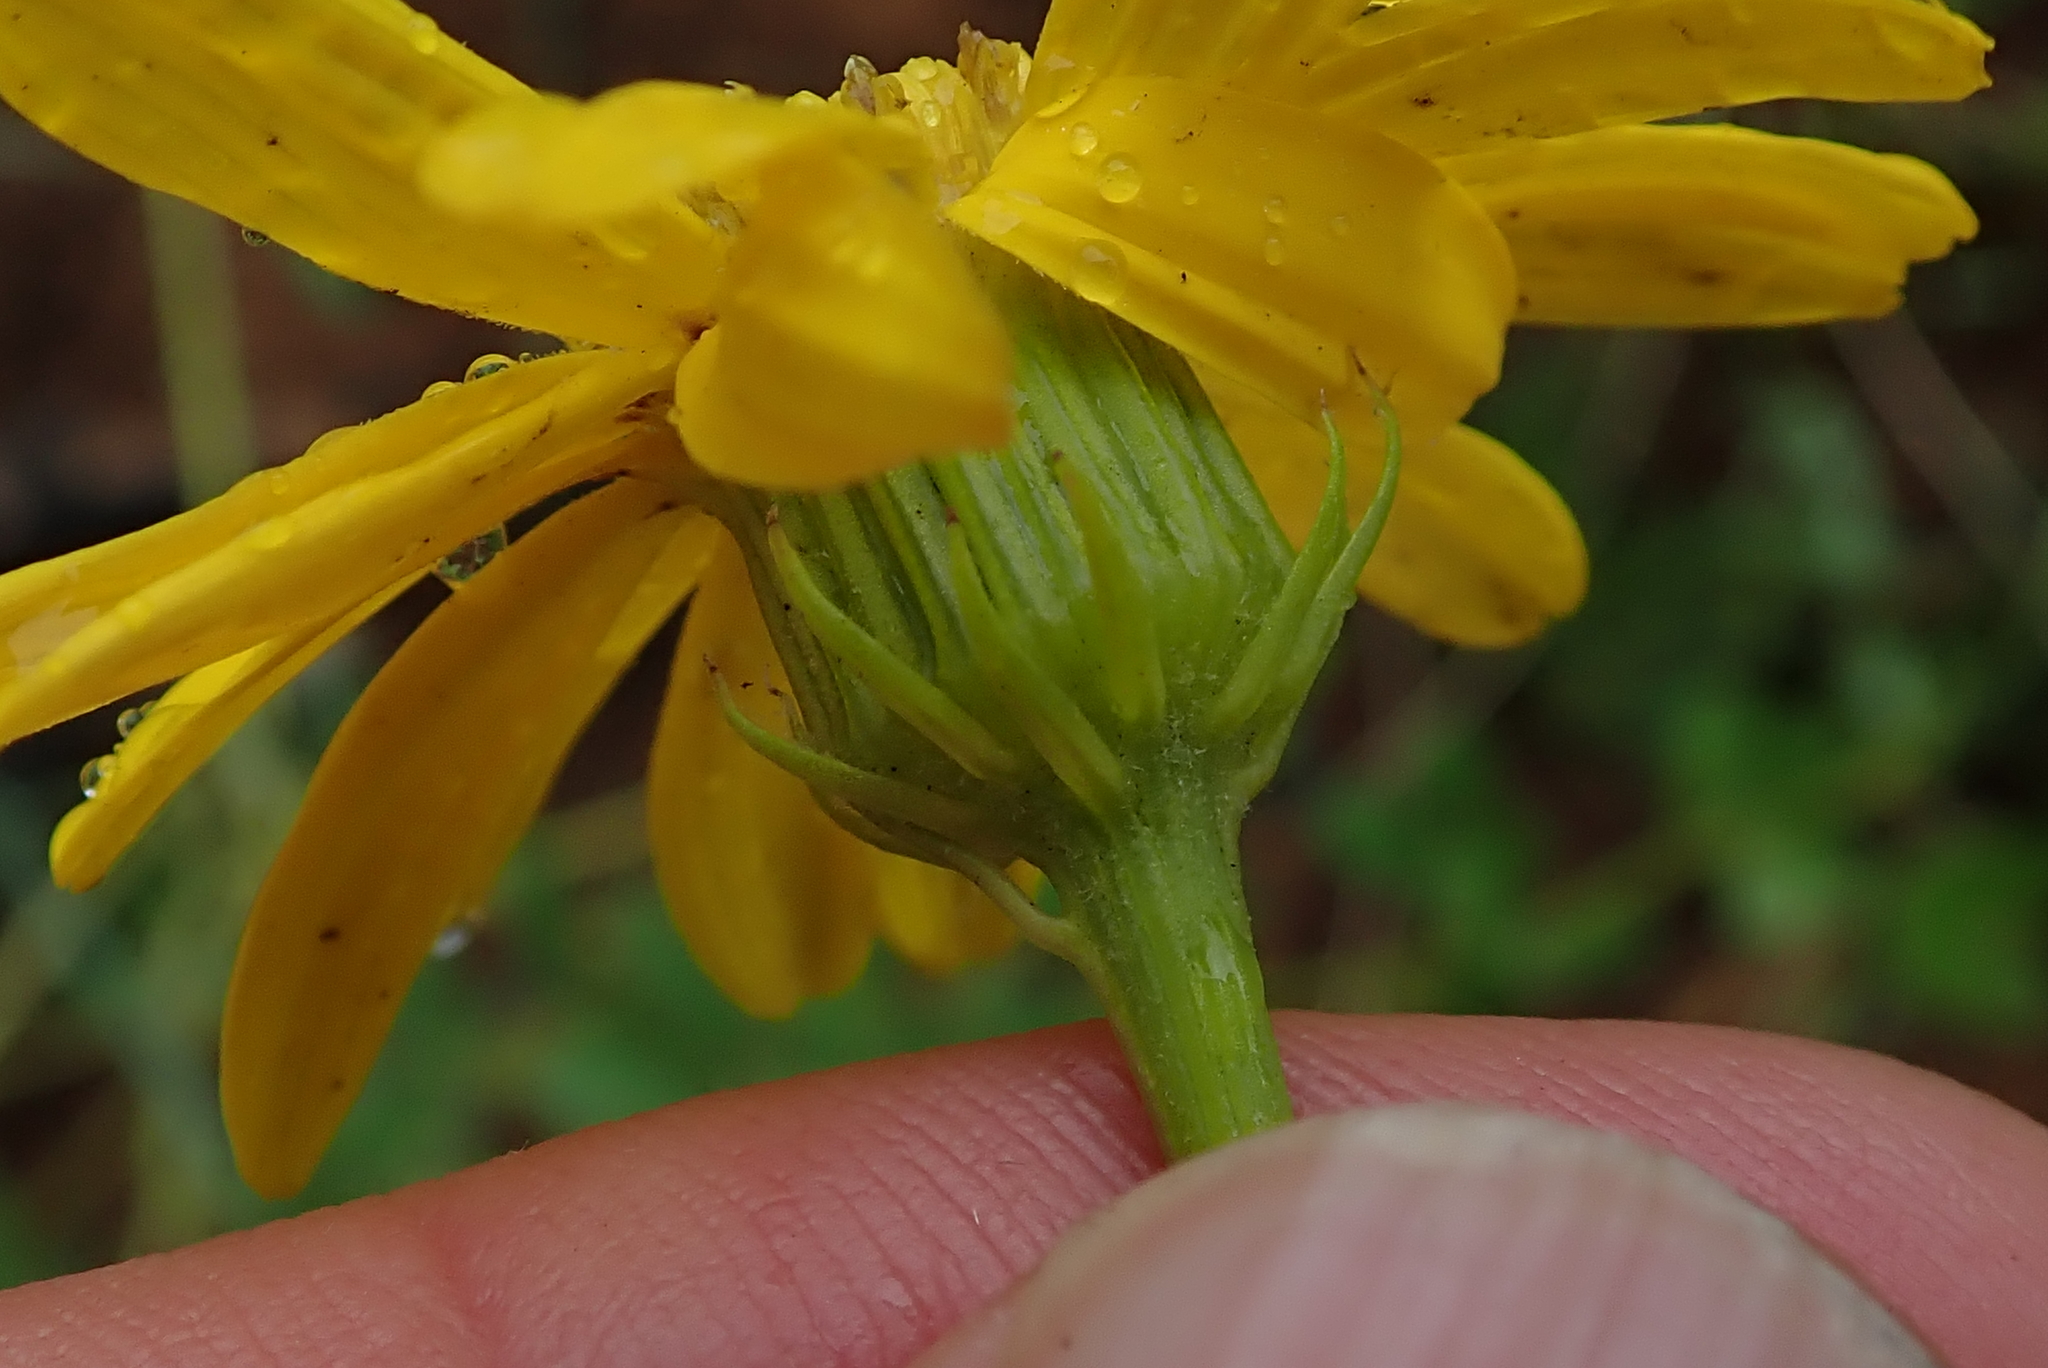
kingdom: Plantae
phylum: Tracheophyta
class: Magnoliopsida
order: Asterales
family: Asteraceae
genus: Senecio
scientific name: Senecio coronatus
